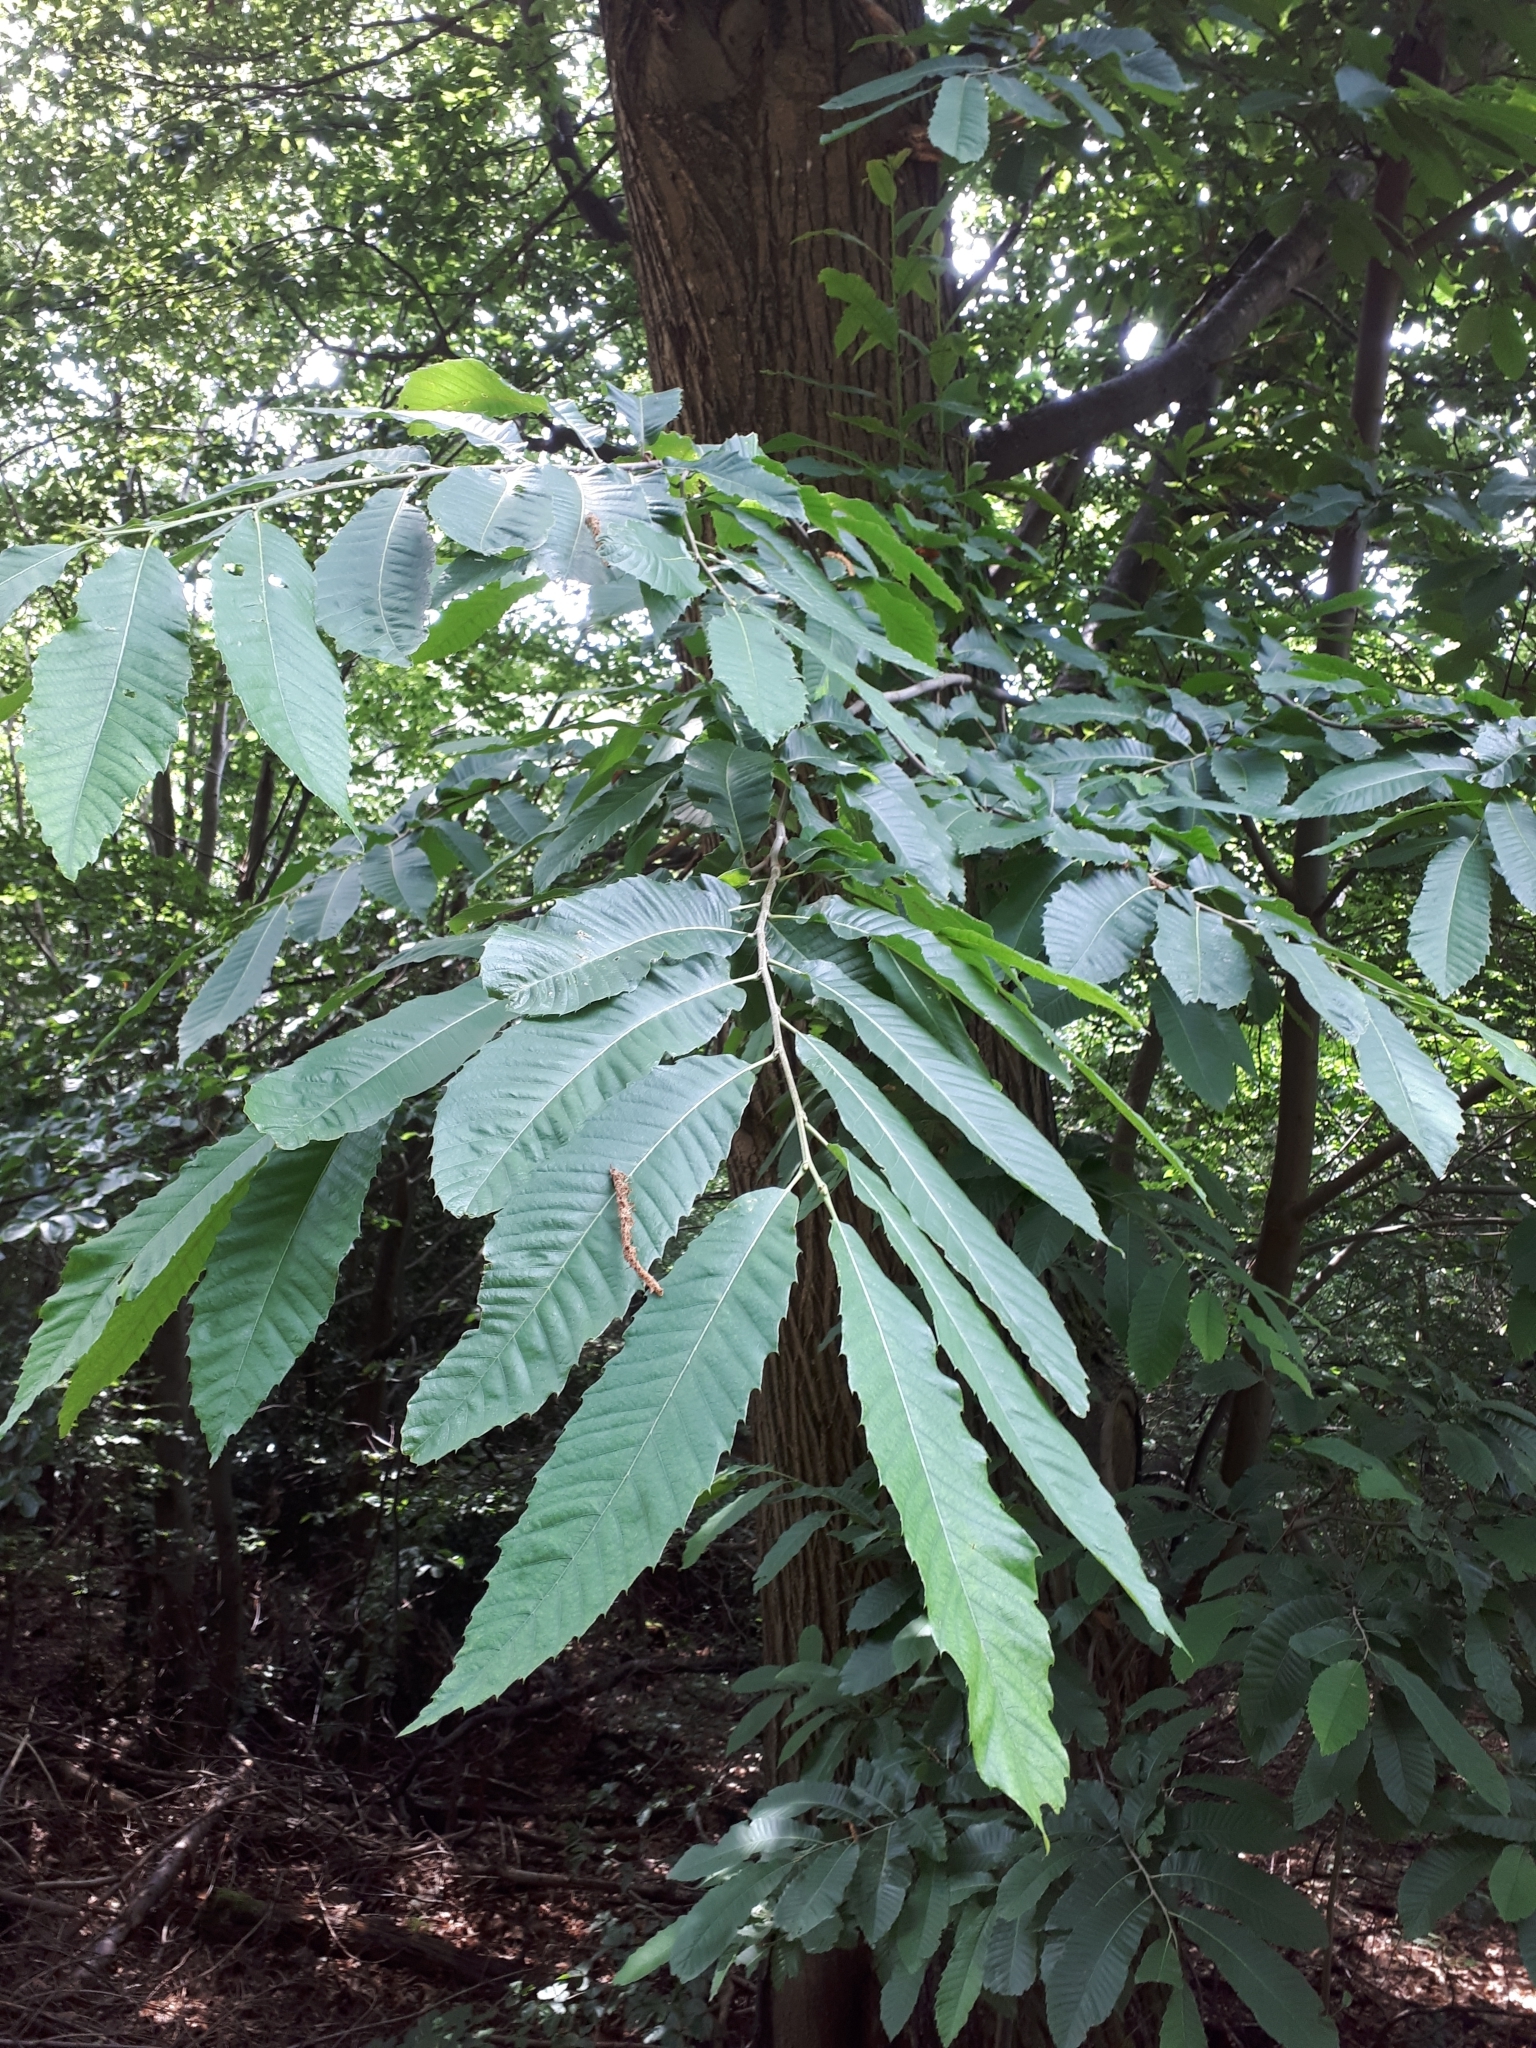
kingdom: Plantae
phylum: Tracheophyta
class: Magnoliopsida
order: Fagales
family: Fagaceae
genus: Castanea
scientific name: Castanea sativa
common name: Sweet chestnut
